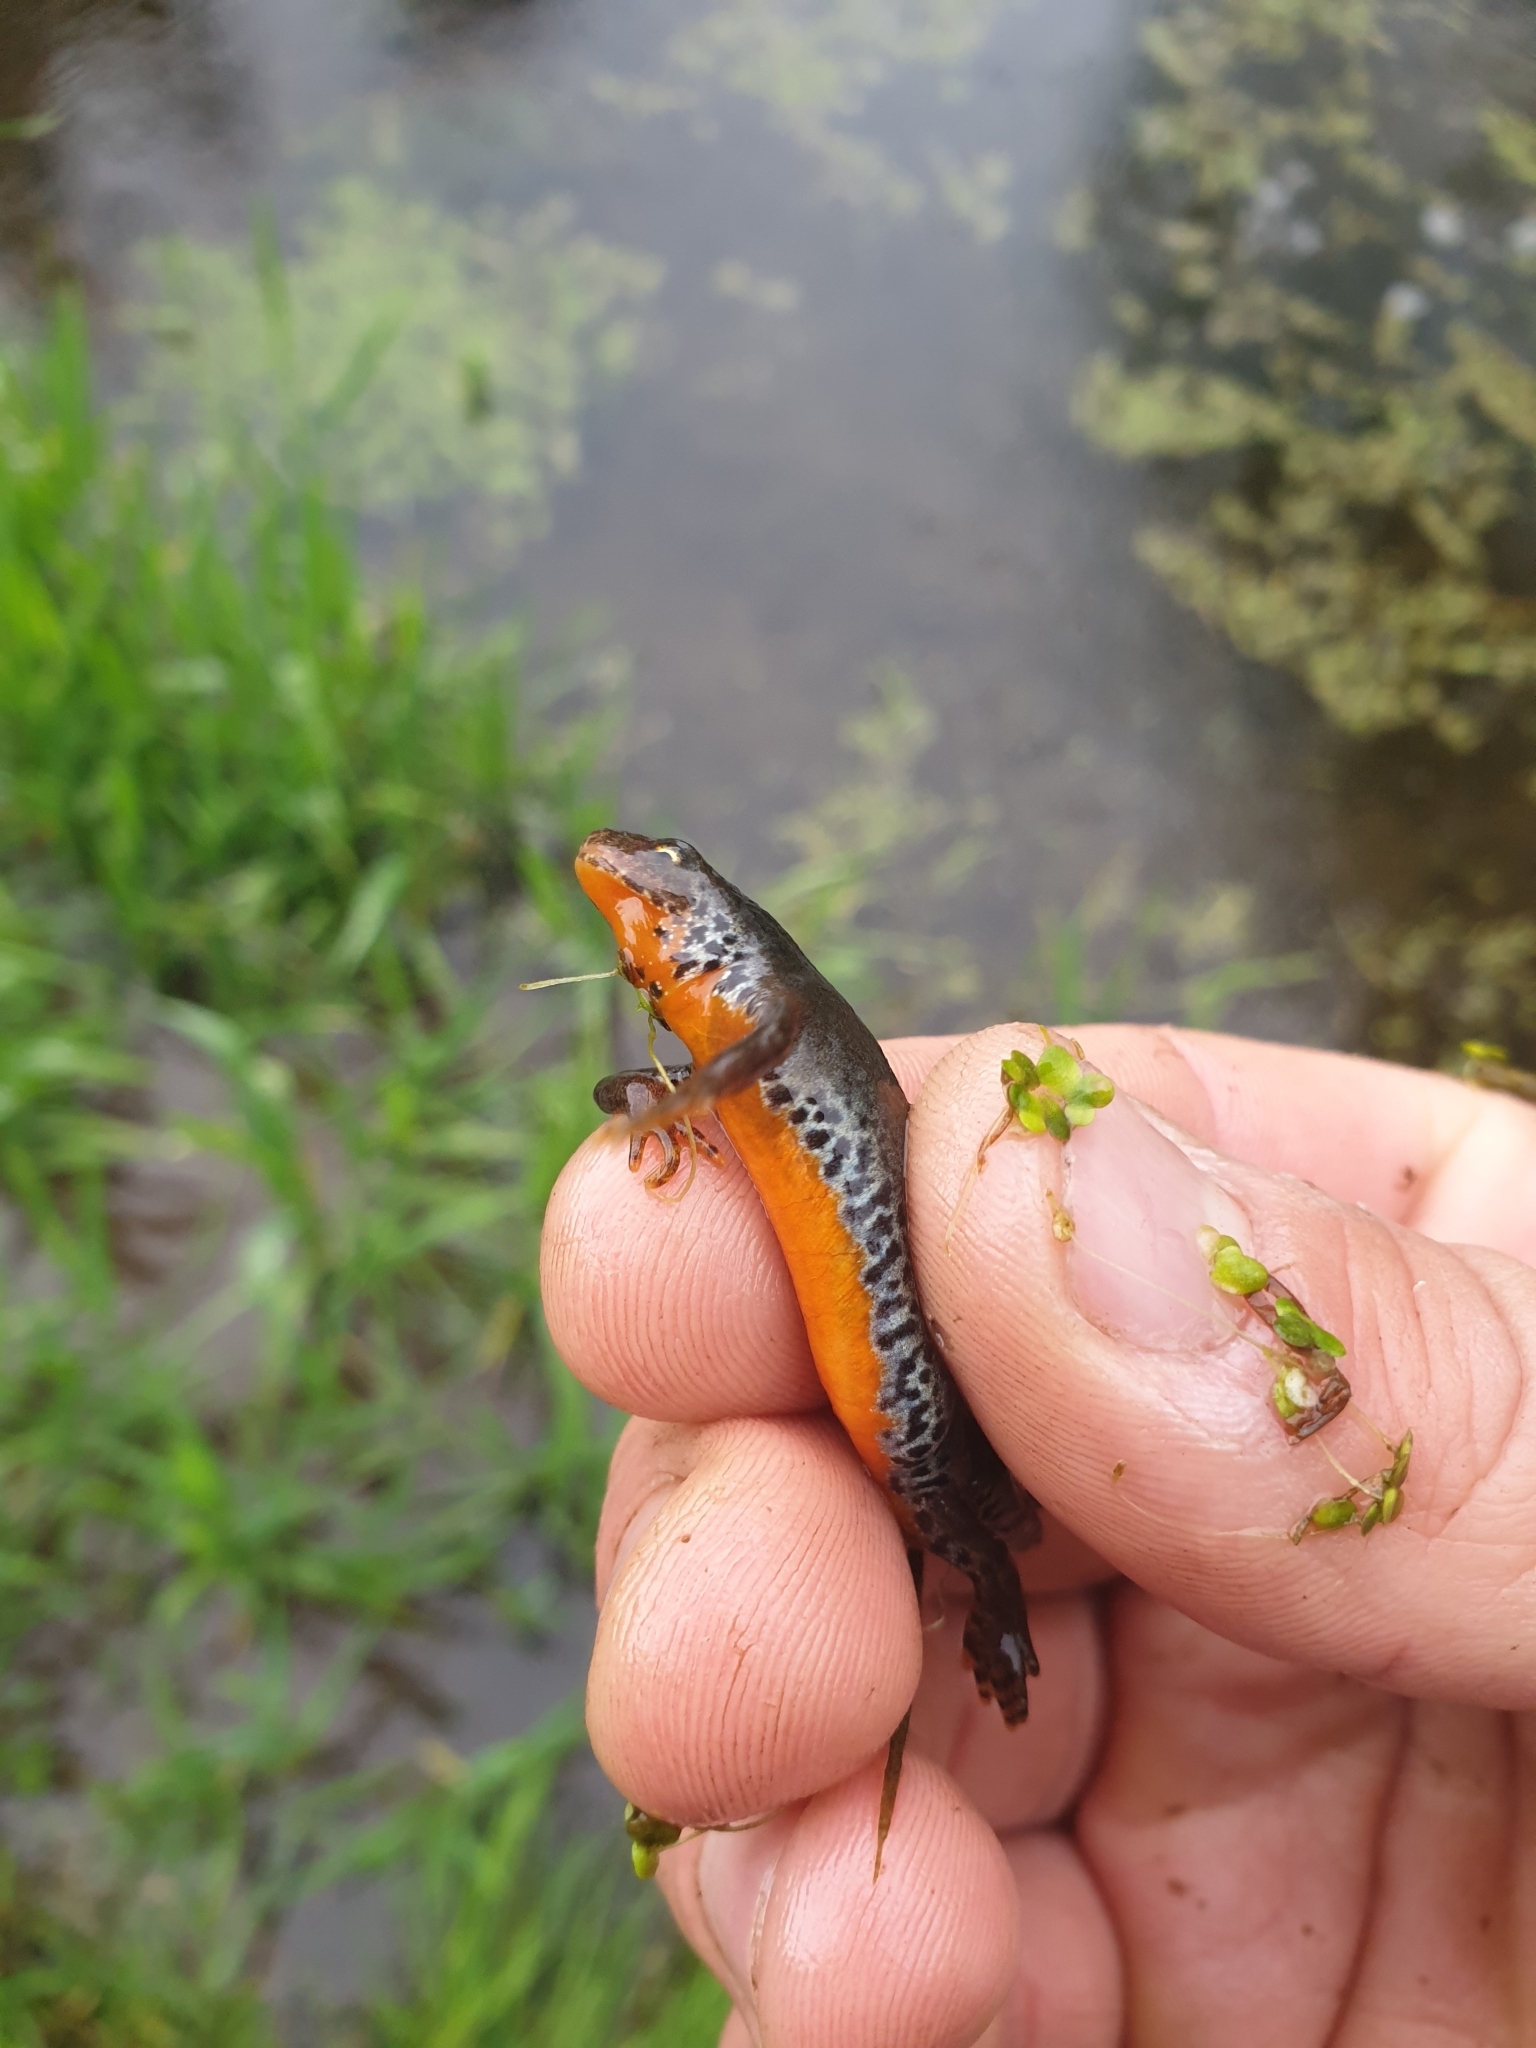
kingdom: Animalia
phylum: Chordata
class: Amphibia
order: Caudata
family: Salamandridae
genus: Ichthyosaura
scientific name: Ichthyosaura alpestris
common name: Alpine newt
